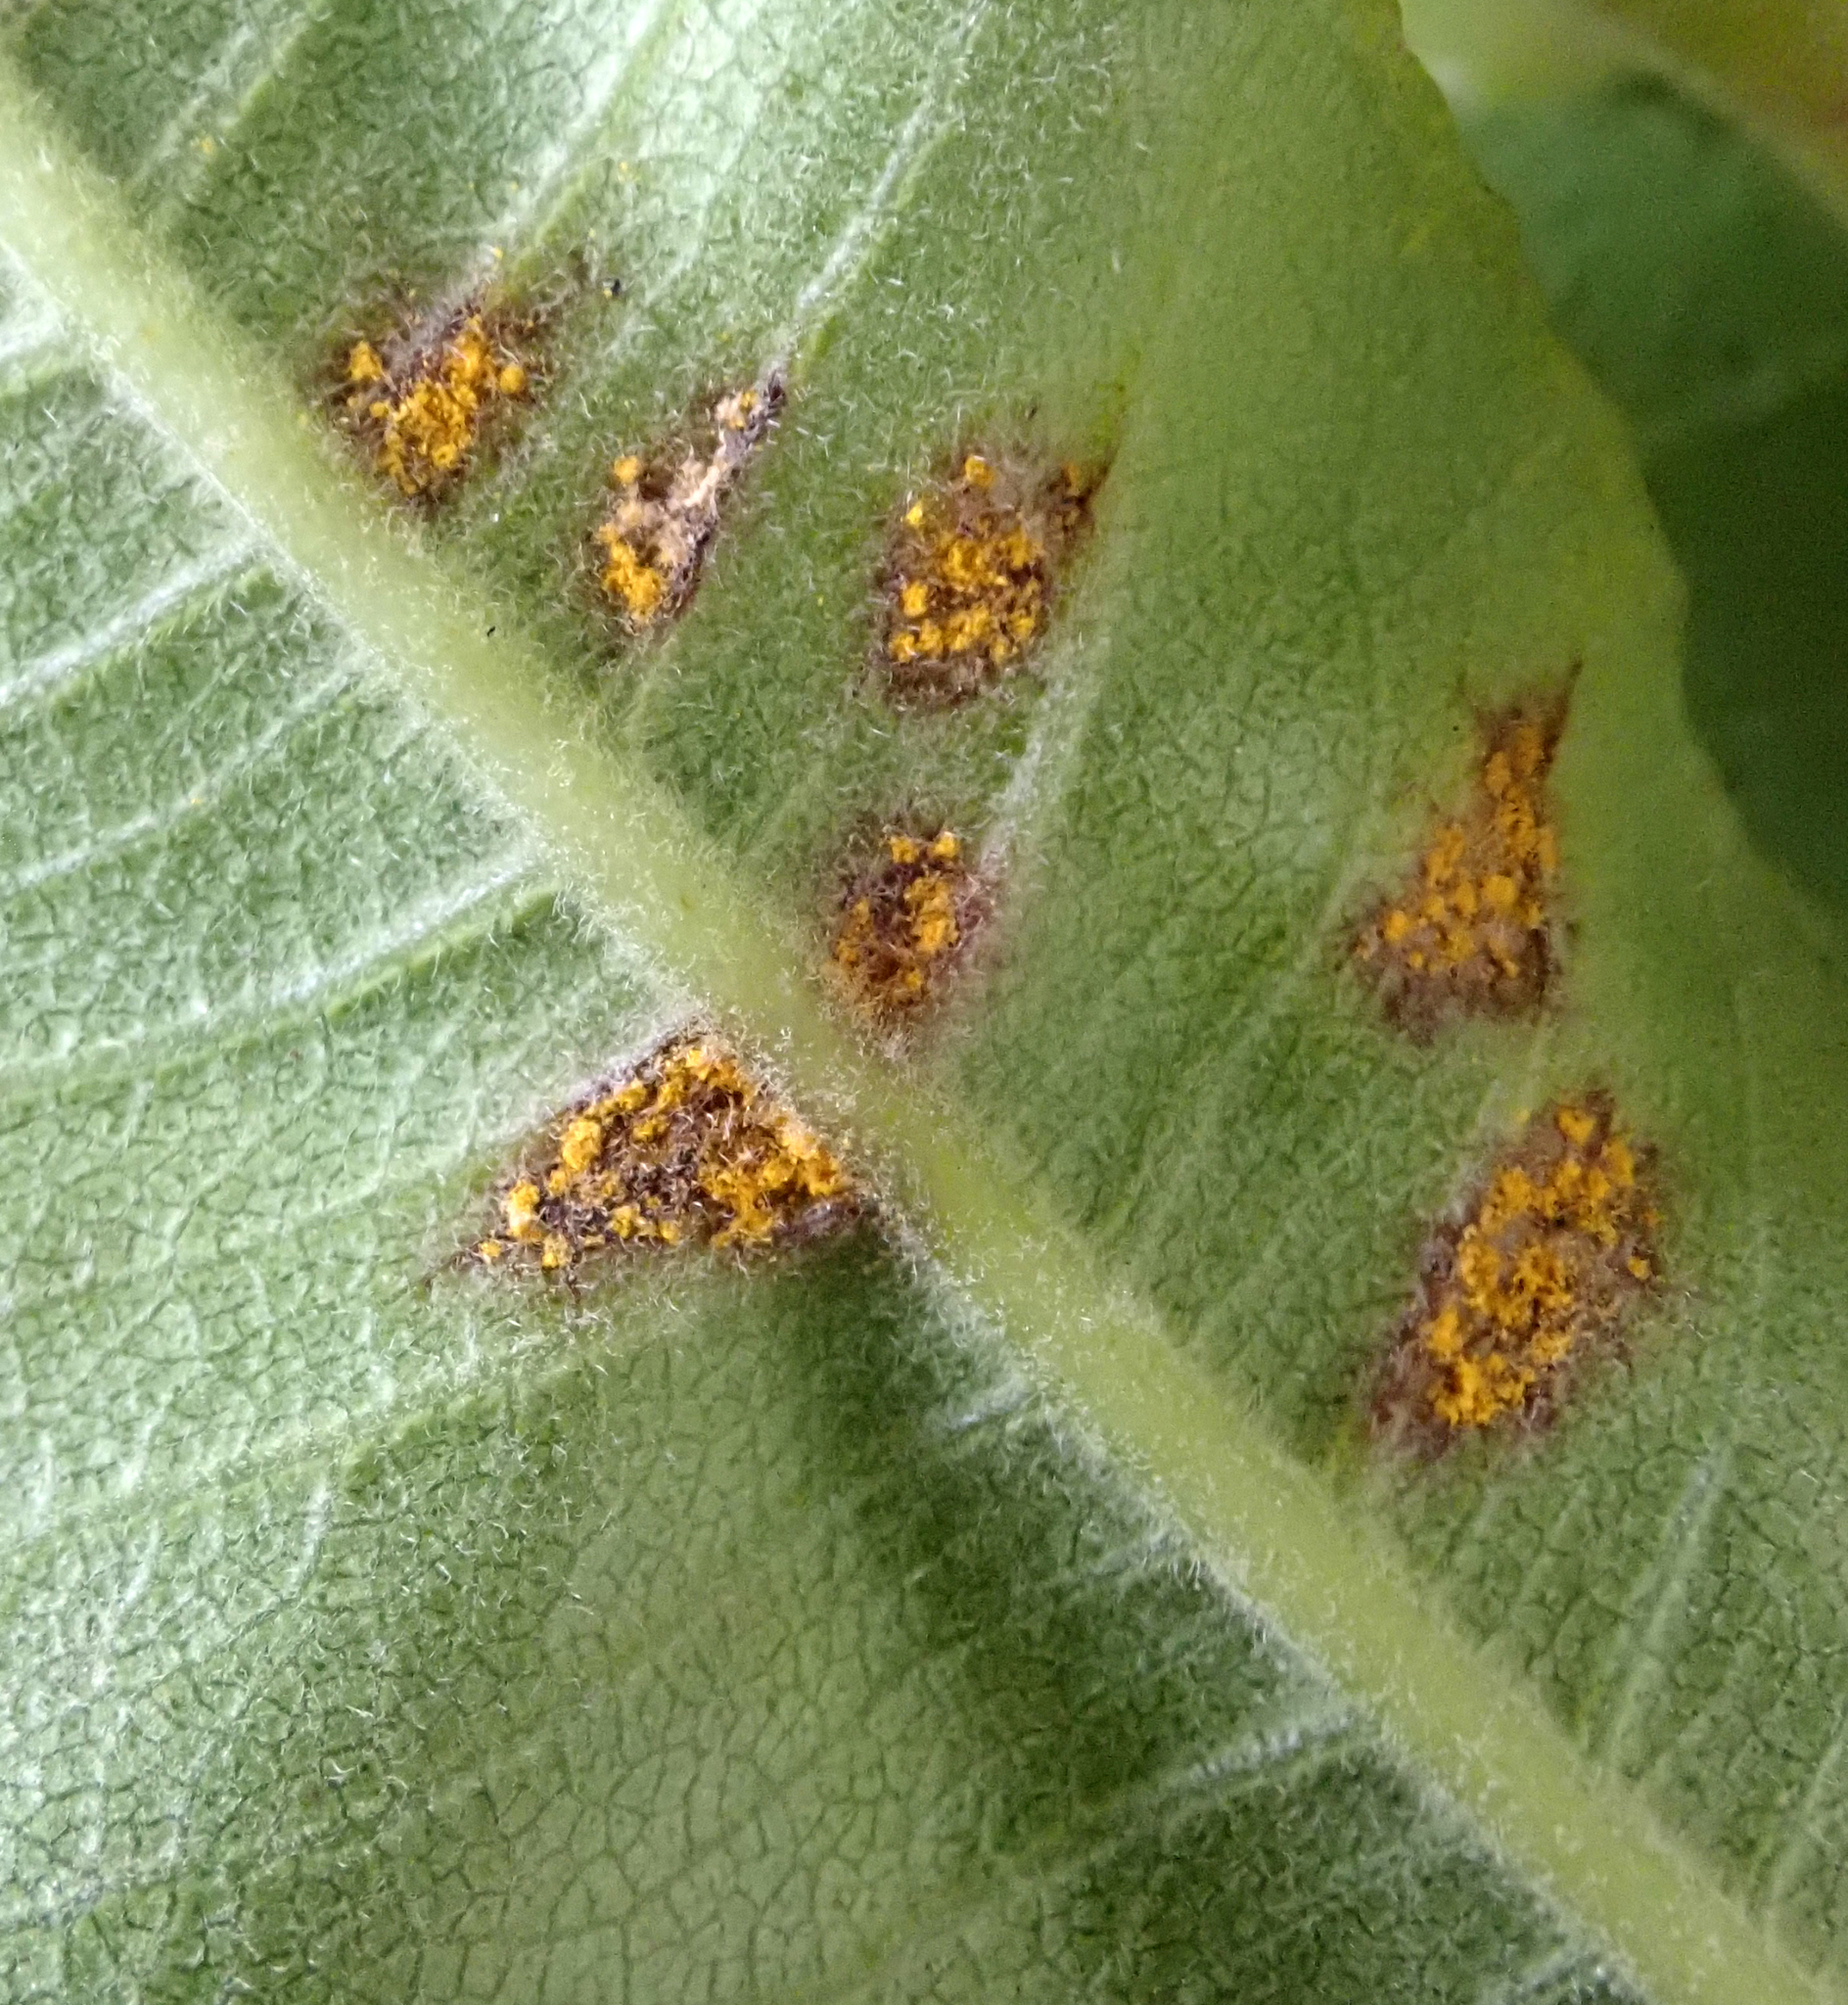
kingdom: Fungi
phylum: Basidiomycota
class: Pucciniomycetes
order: Pucciniales
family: Sphaerophragmiaceae
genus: Austropuccinia
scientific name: Austropuccinia psidii
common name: Myrtle rust
